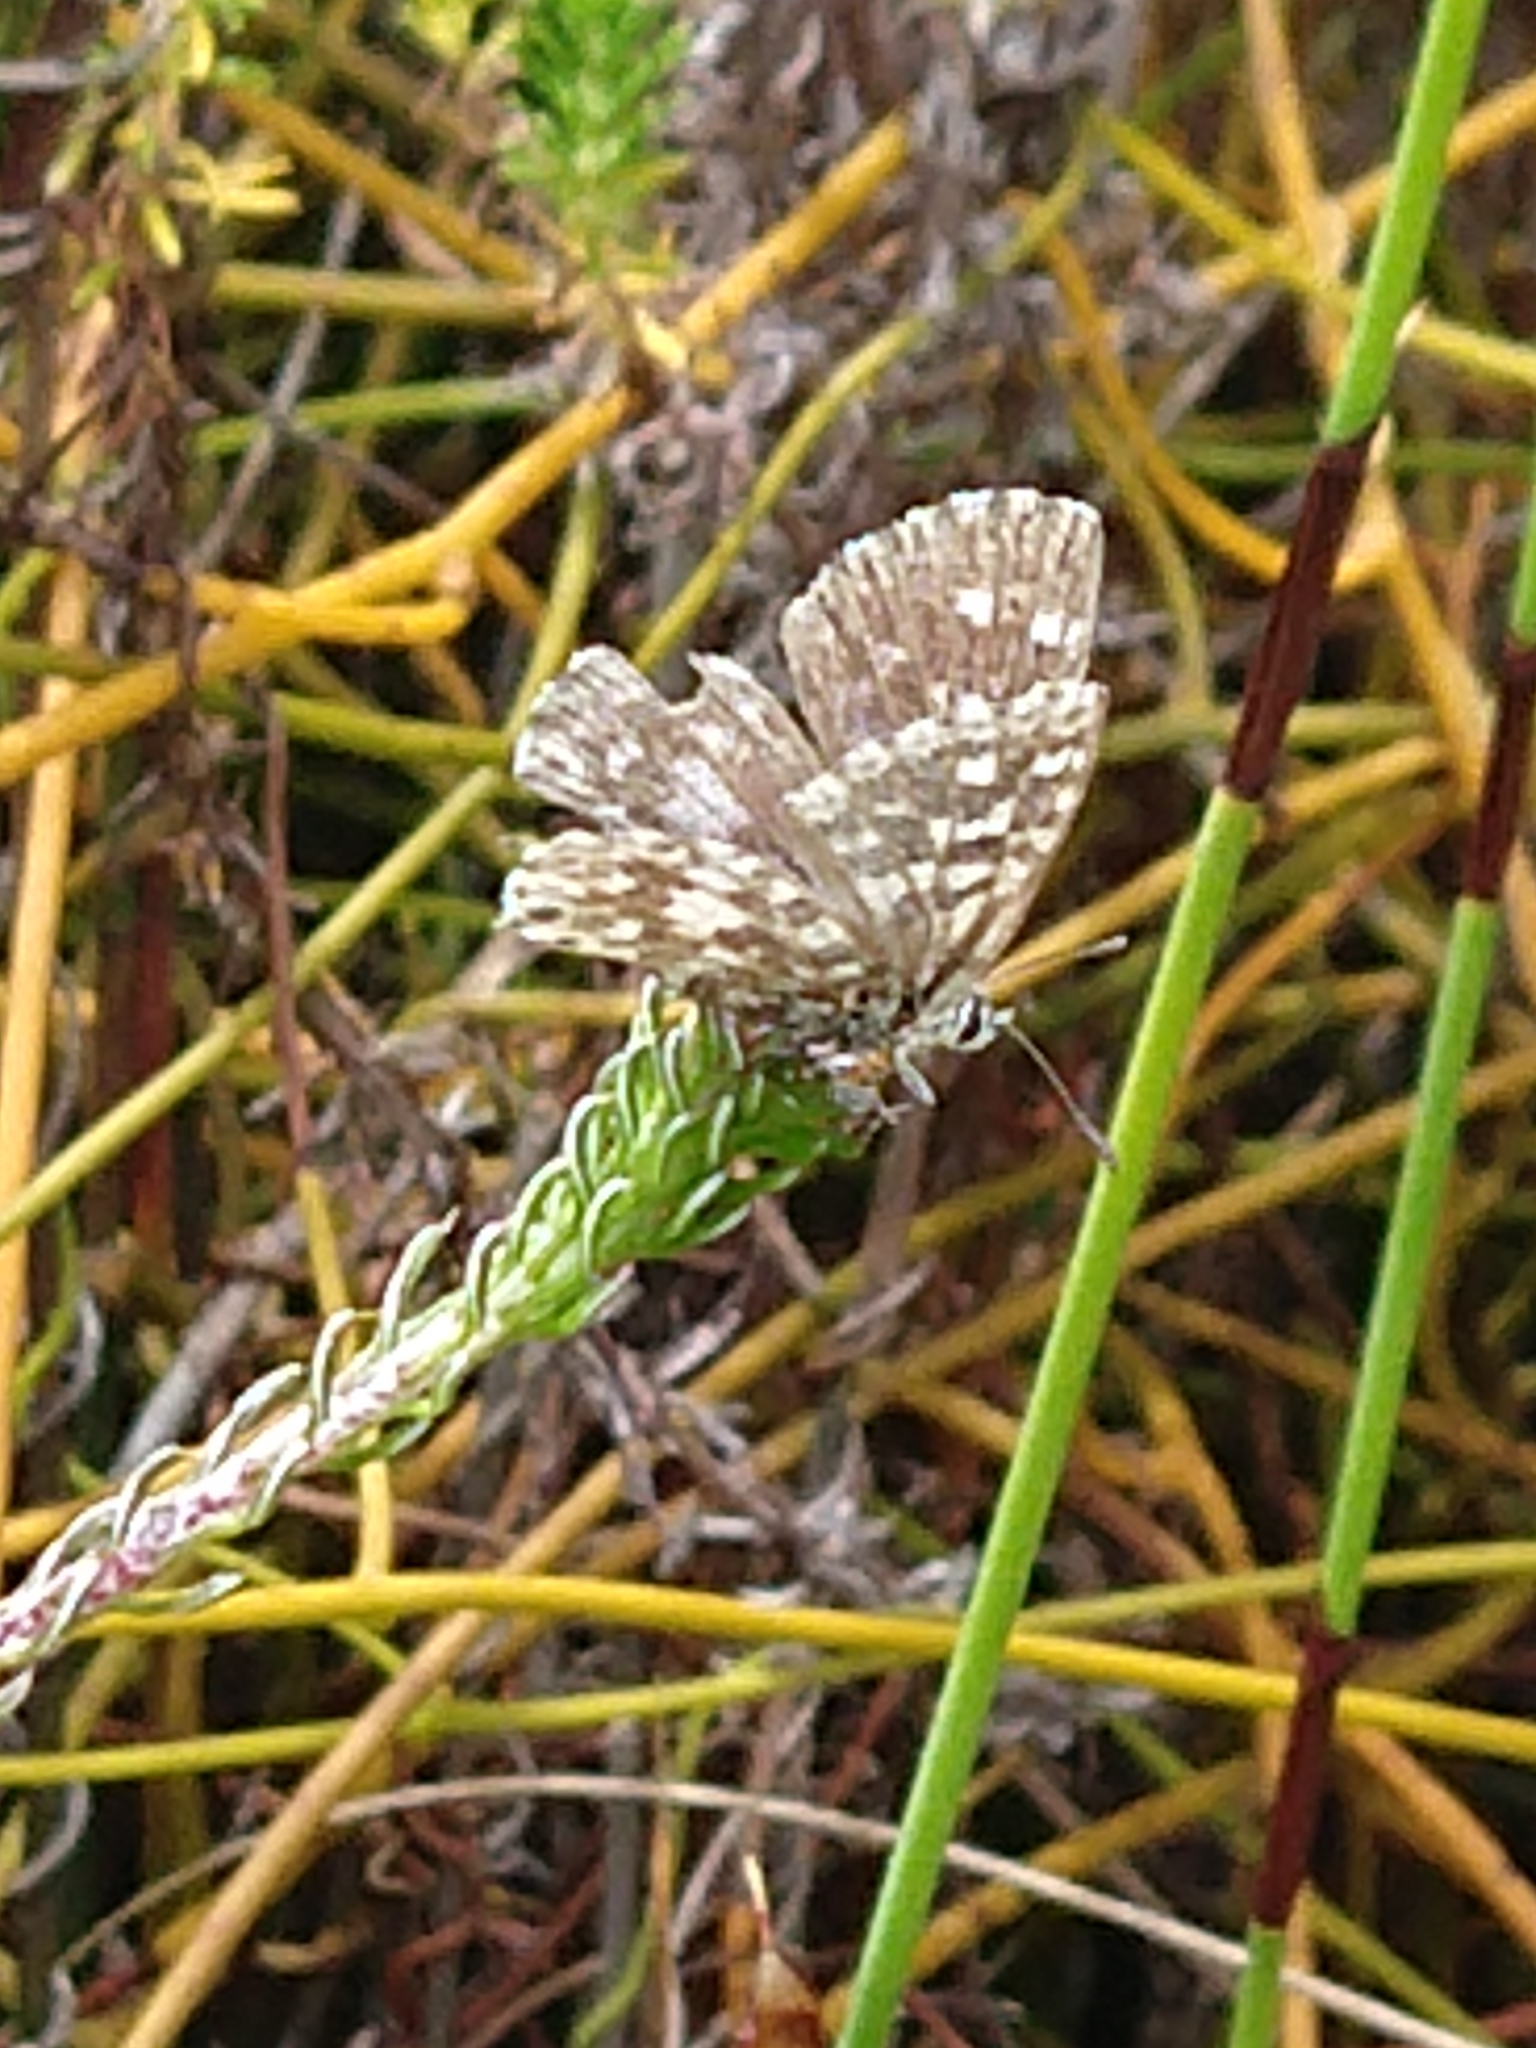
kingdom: Animalia
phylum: Arthropoda
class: Insecta
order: Lepidoptera
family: Lycaenidae
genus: Tarucus
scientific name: Tarucus thespis
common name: Vivid dotted blue
